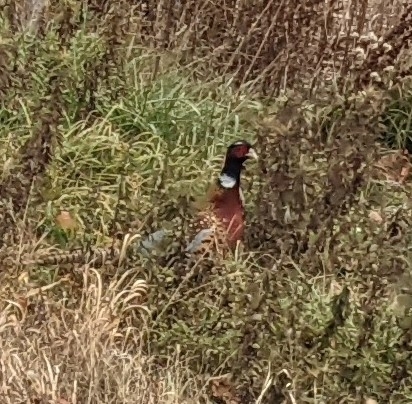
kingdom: Animalia
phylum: Chordata
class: Aves
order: Galliformes
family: Phasianidae
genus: Phasianus
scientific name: Phasianus colchicus
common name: Common pheasant
